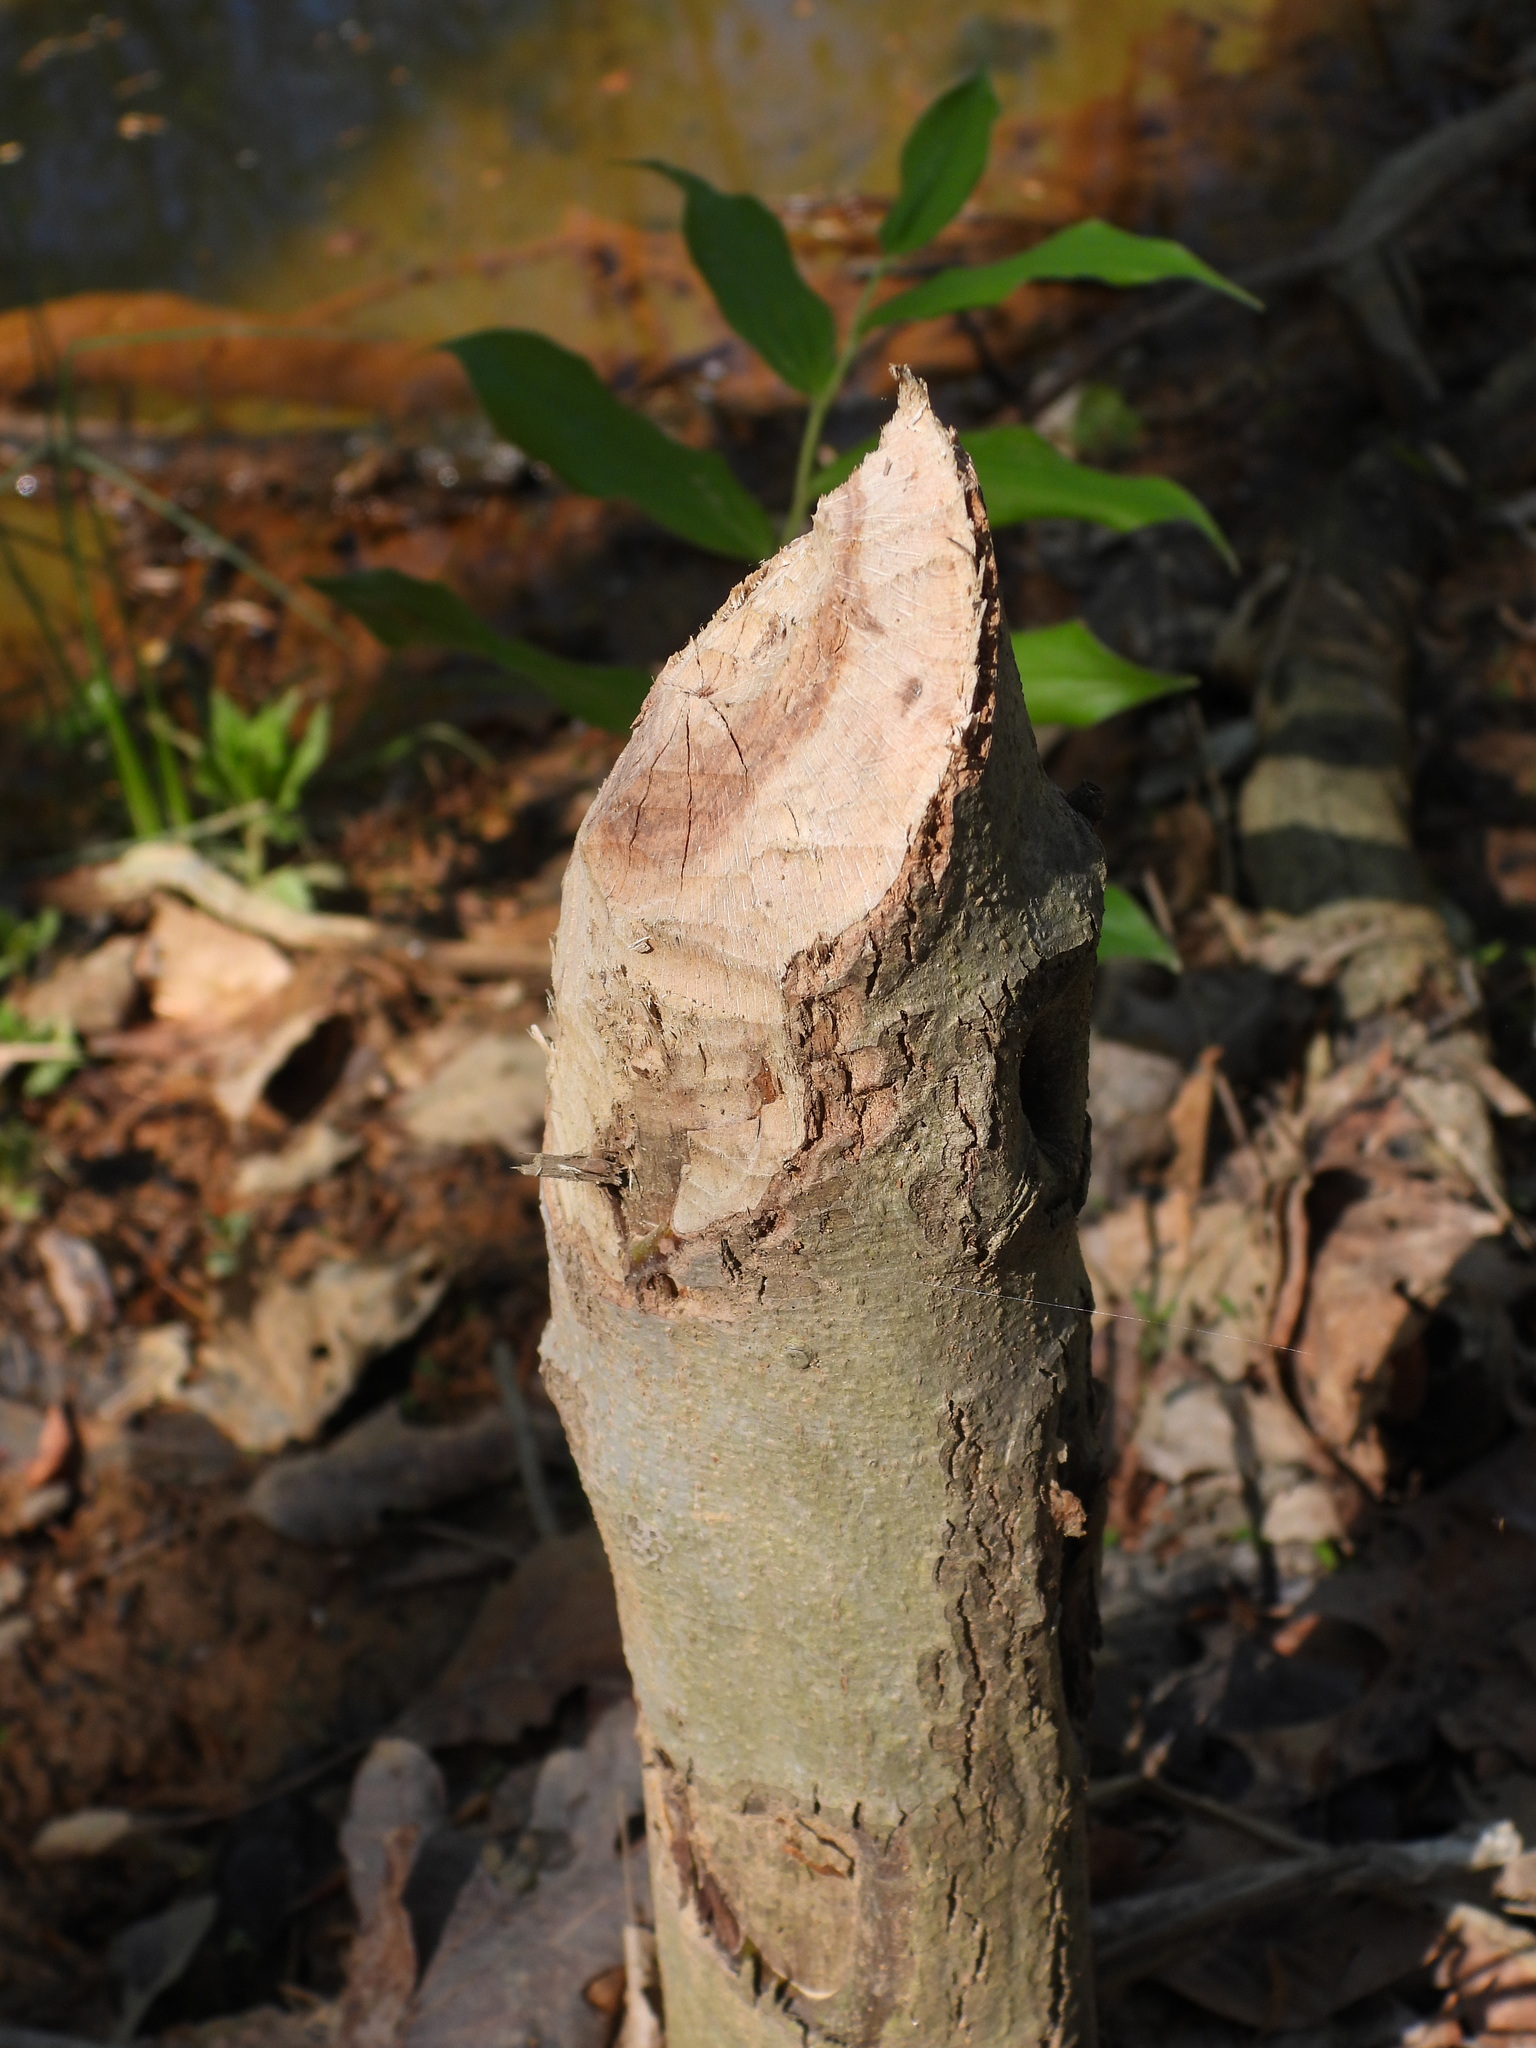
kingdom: Animalia
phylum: Chordata
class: Mammalia
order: Rodentia
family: Castoridae
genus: Castor
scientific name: Castor canadensis
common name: American beaver
